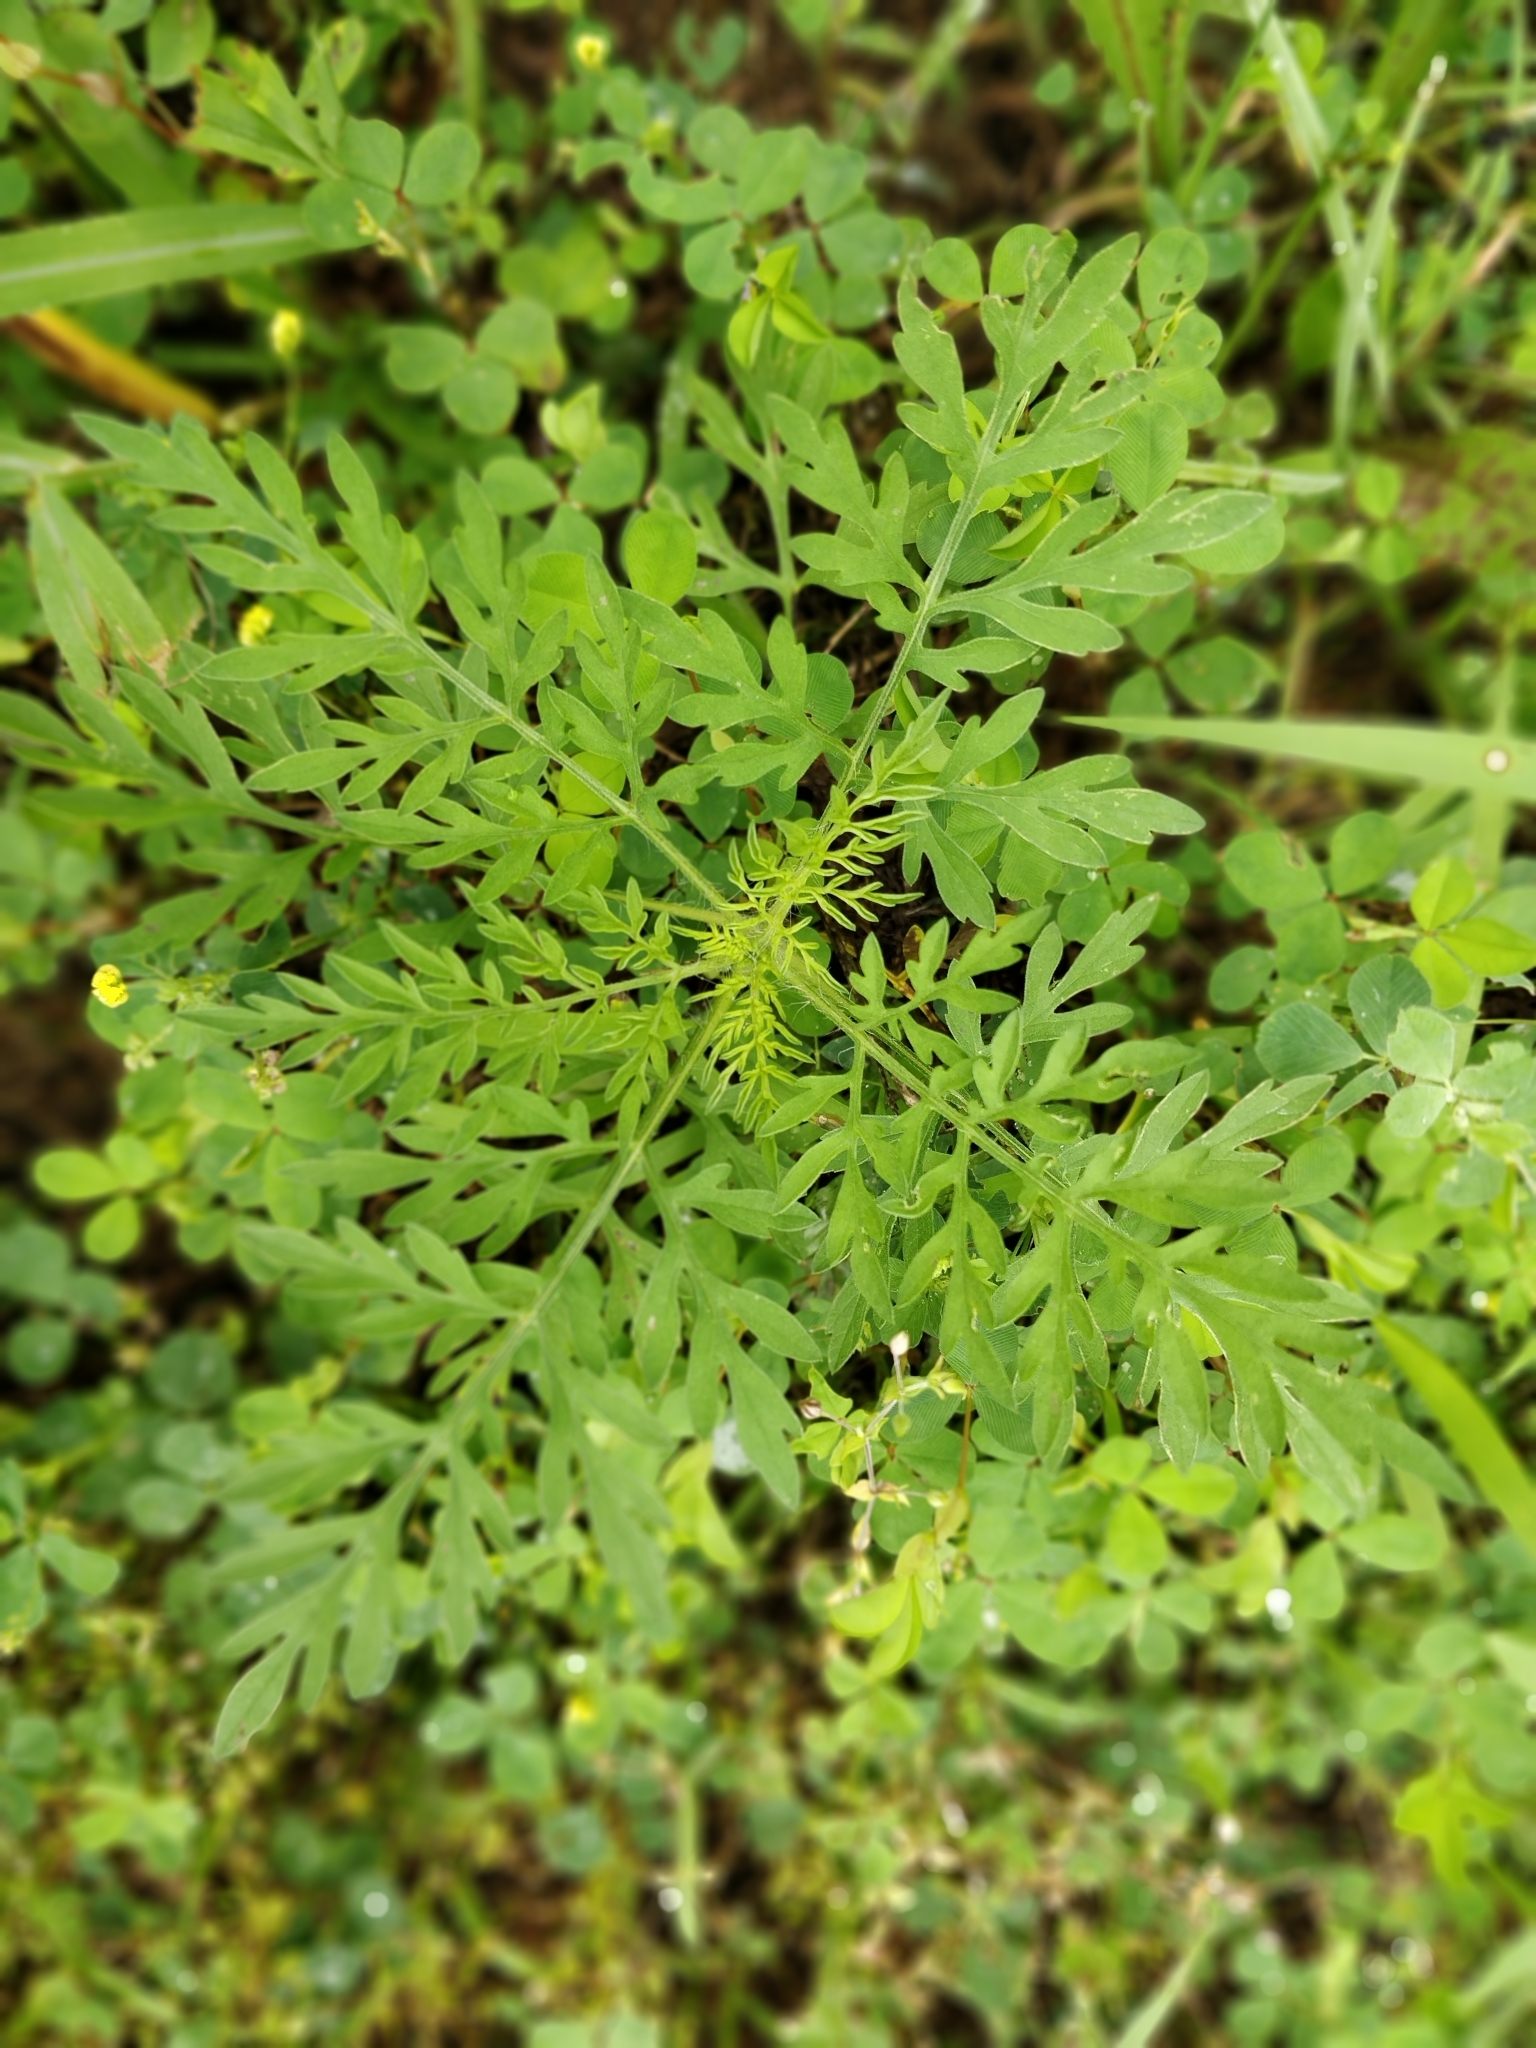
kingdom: Plantae
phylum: Tracheophyta
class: Magnoliopsida
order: Asterales
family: Asteraceae
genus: Ambrosia
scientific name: Ambrosia artemisiifolia
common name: Annual ragweed
